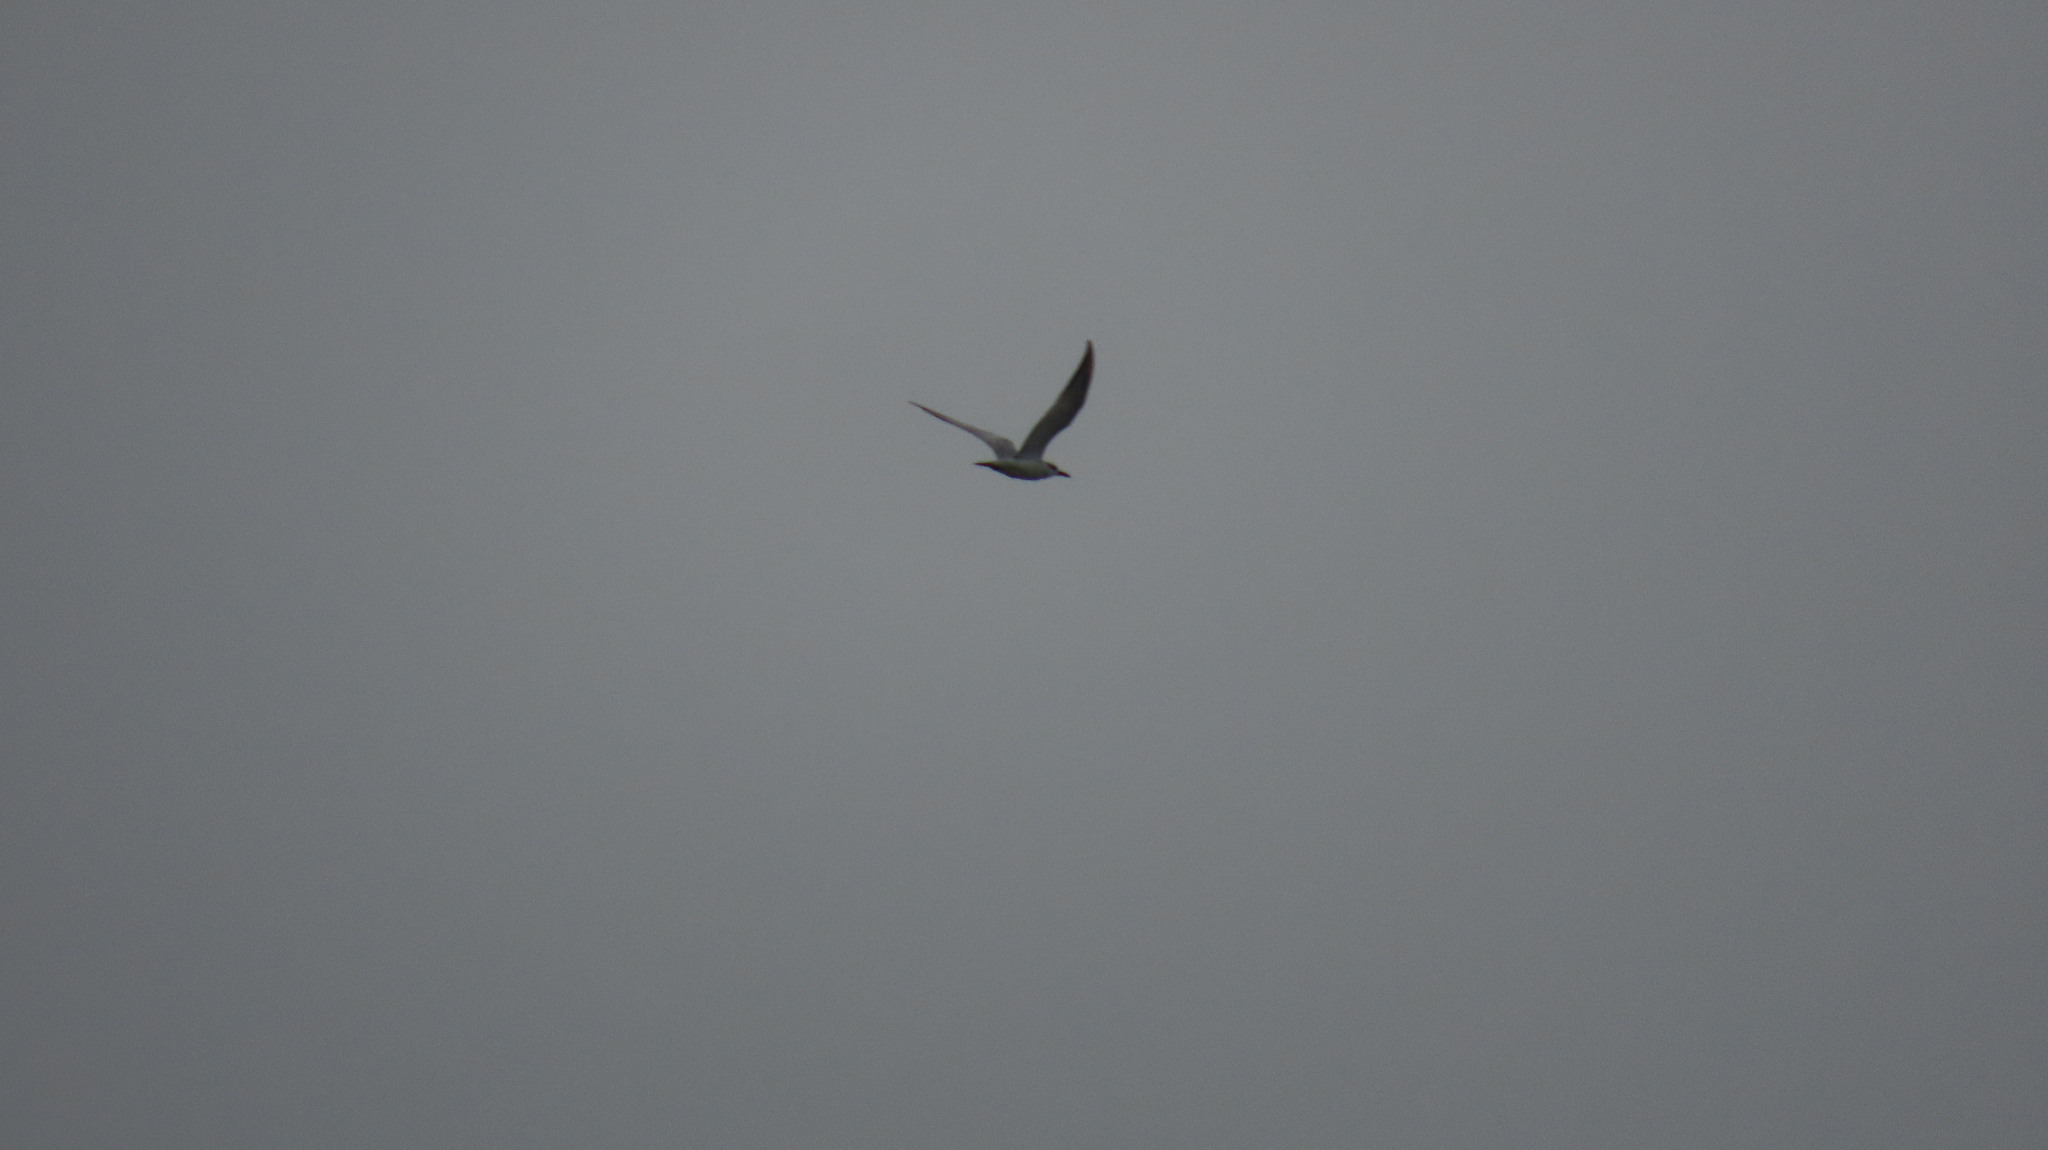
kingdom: Animalia
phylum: Chordata
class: Aves
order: Charadriiformes
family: Laridae
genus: Chlidonias
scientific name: Chlidonias hybrida
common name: Whiskered tern
